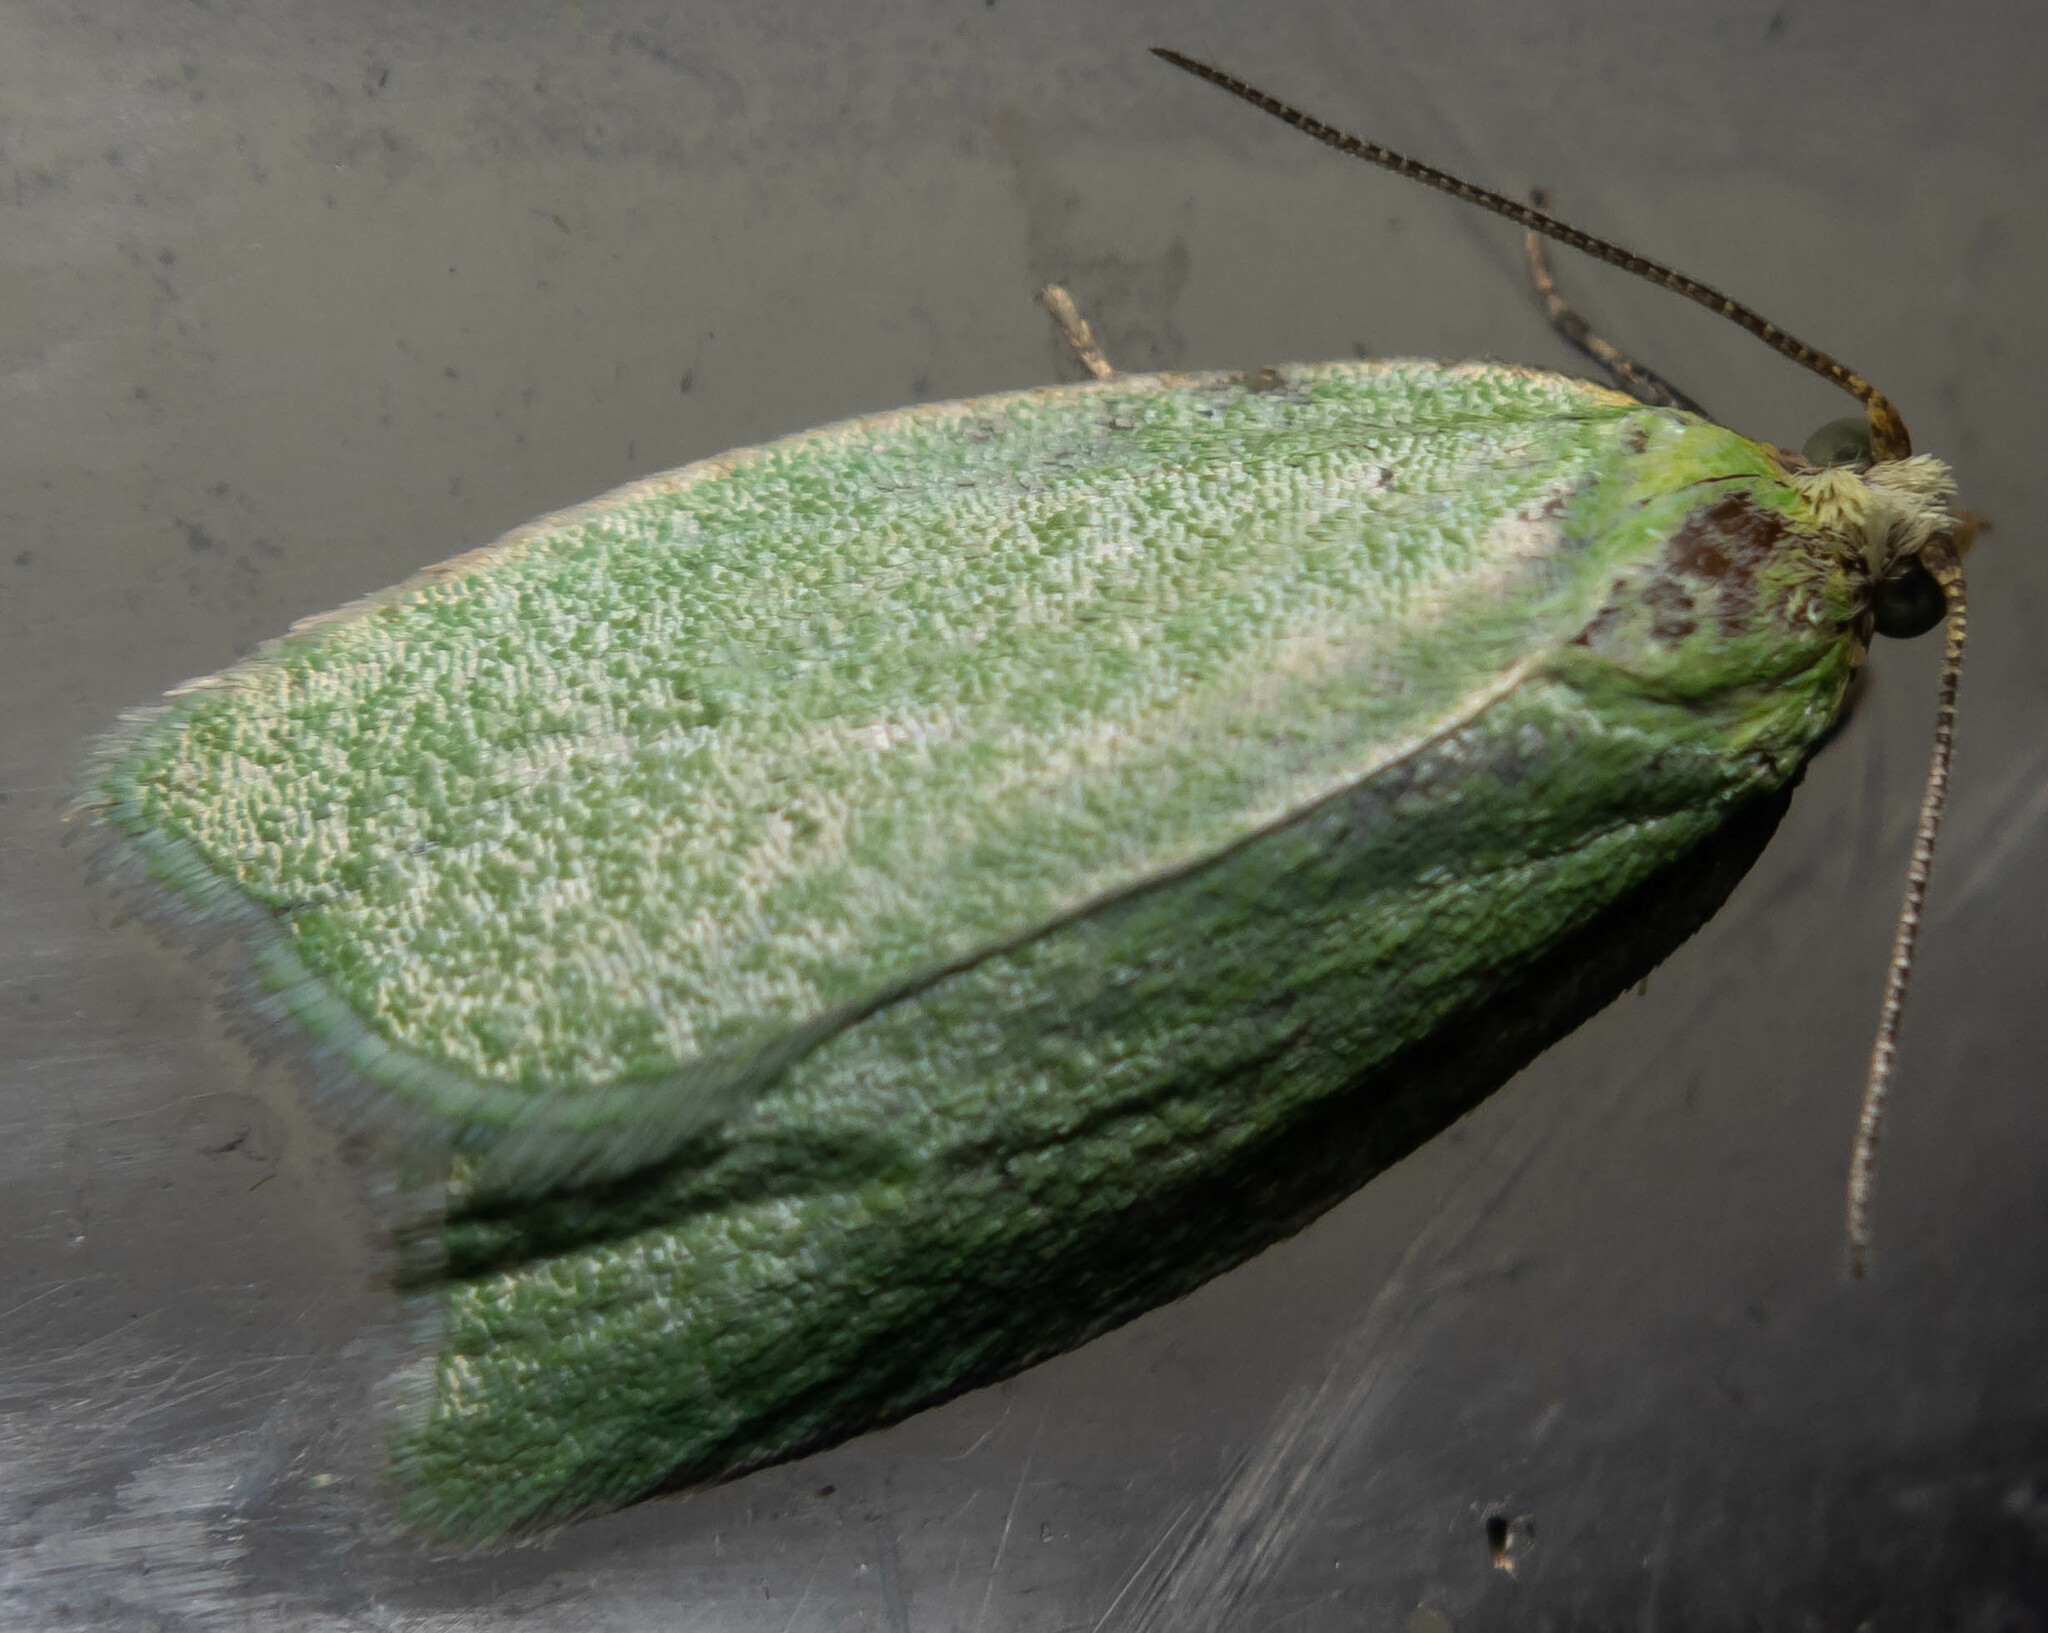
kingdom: Animalia
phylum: Arthropoda
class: Insecta
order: Lepidoptera
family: Tortricidae
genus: Tortrix
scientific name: Tortrix viridana
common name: Green oak tortrix
